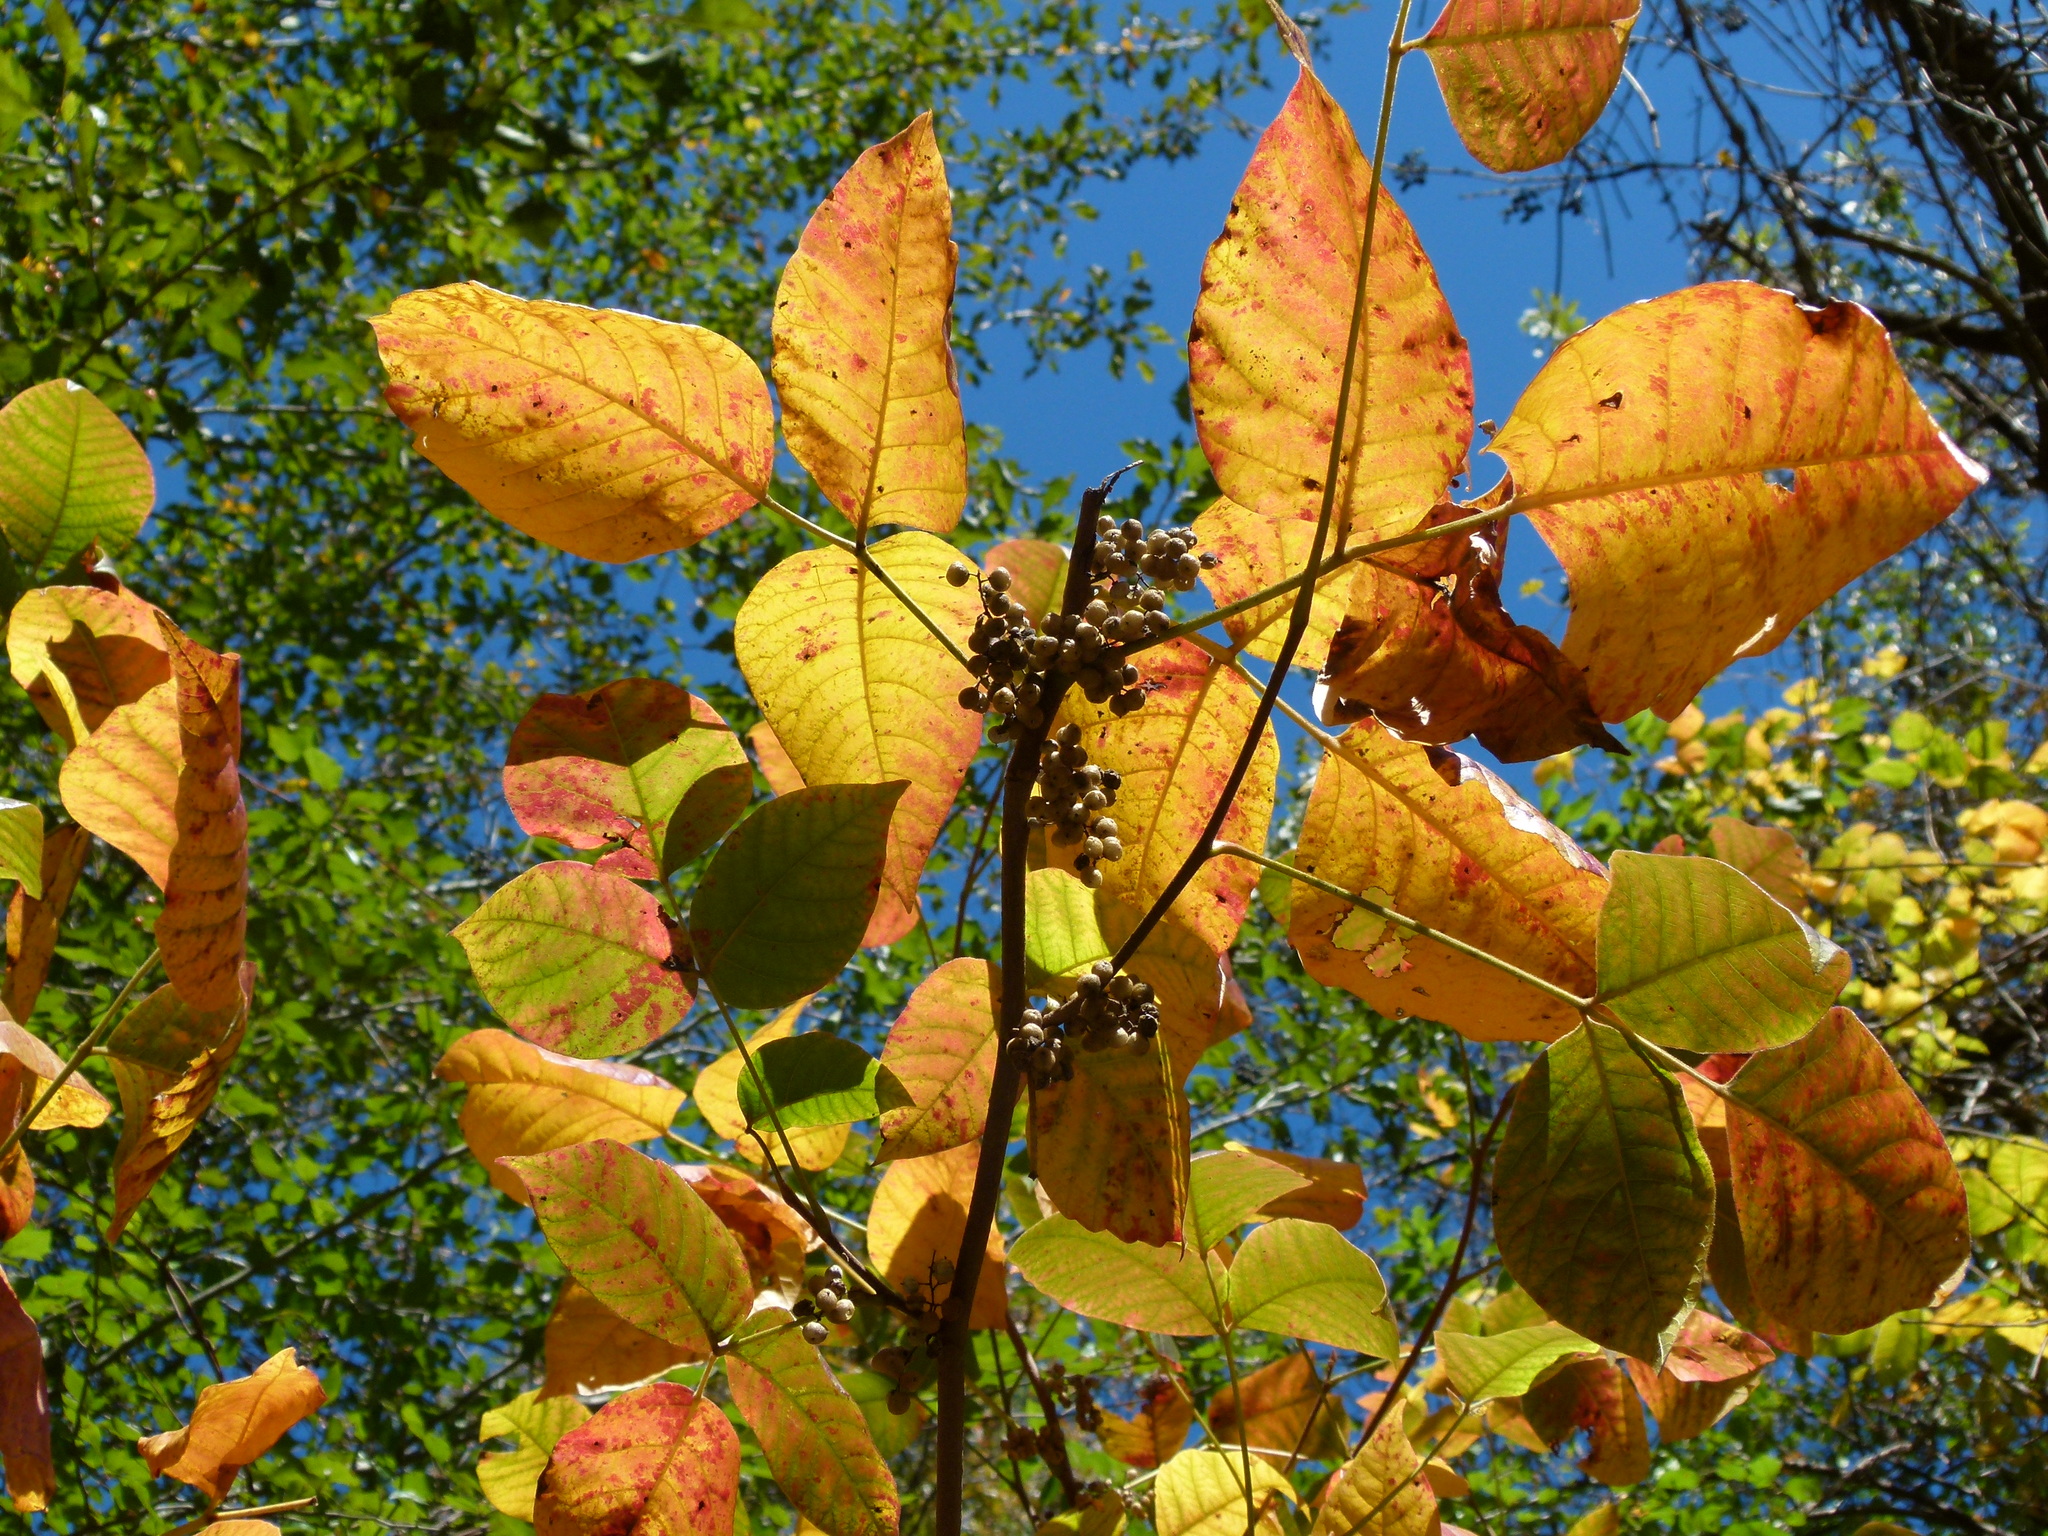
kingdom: Plantae
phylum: Tracheophyta
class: Magnoliopsida
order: Sapindales
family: Anacardiaceae
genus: Toxicodendron
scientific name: Toxicodendron radicans
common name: Poison ivy
